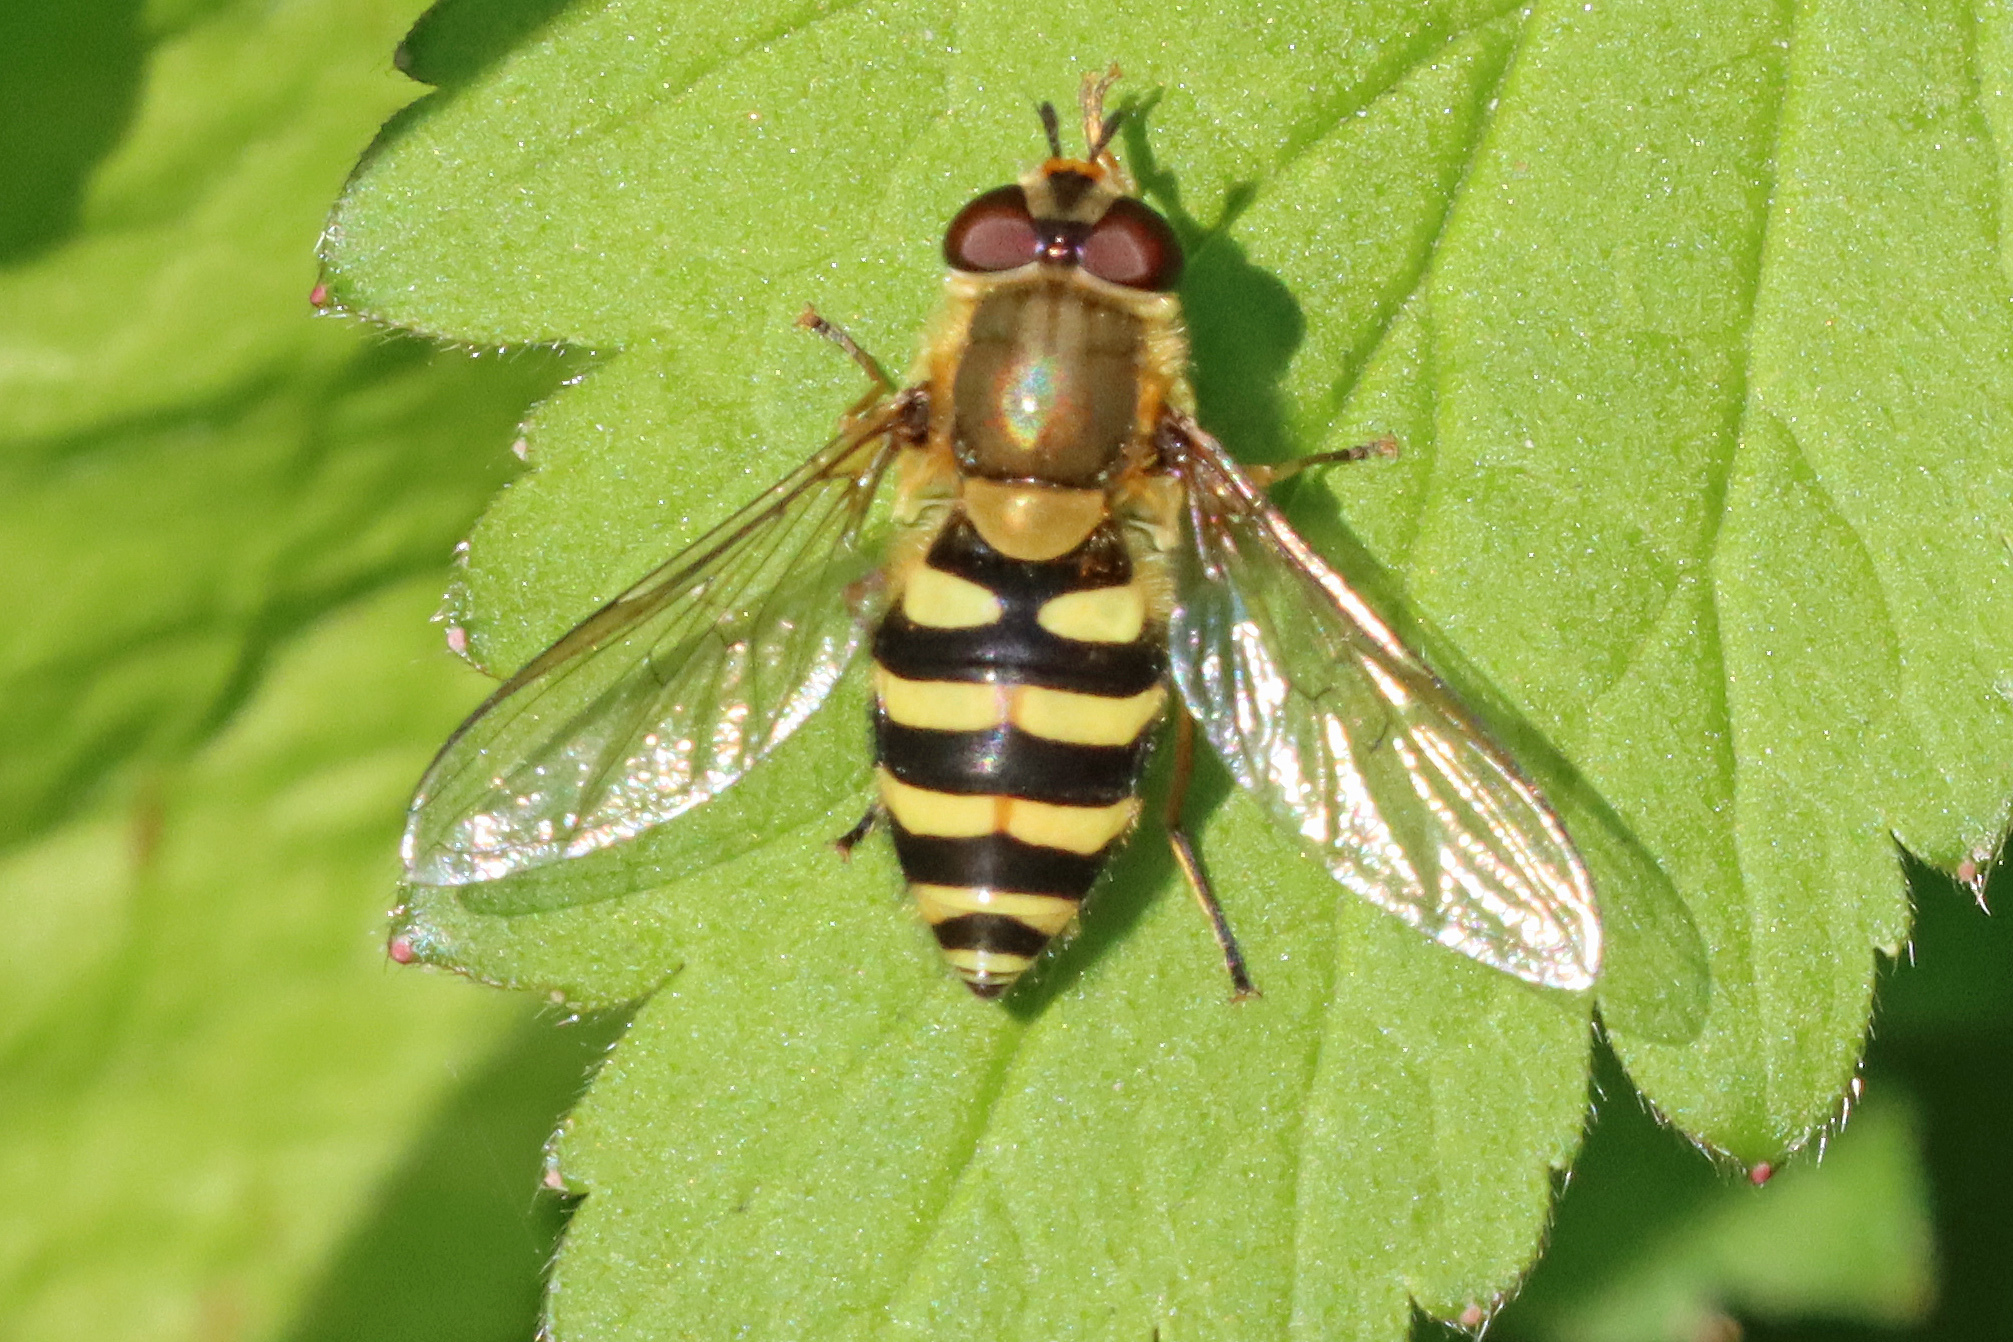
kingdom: Animalia
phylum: Arthropoda
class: Insecta
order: Diptera
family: Syrphidae
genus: Syrphus
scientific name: Syrphus
